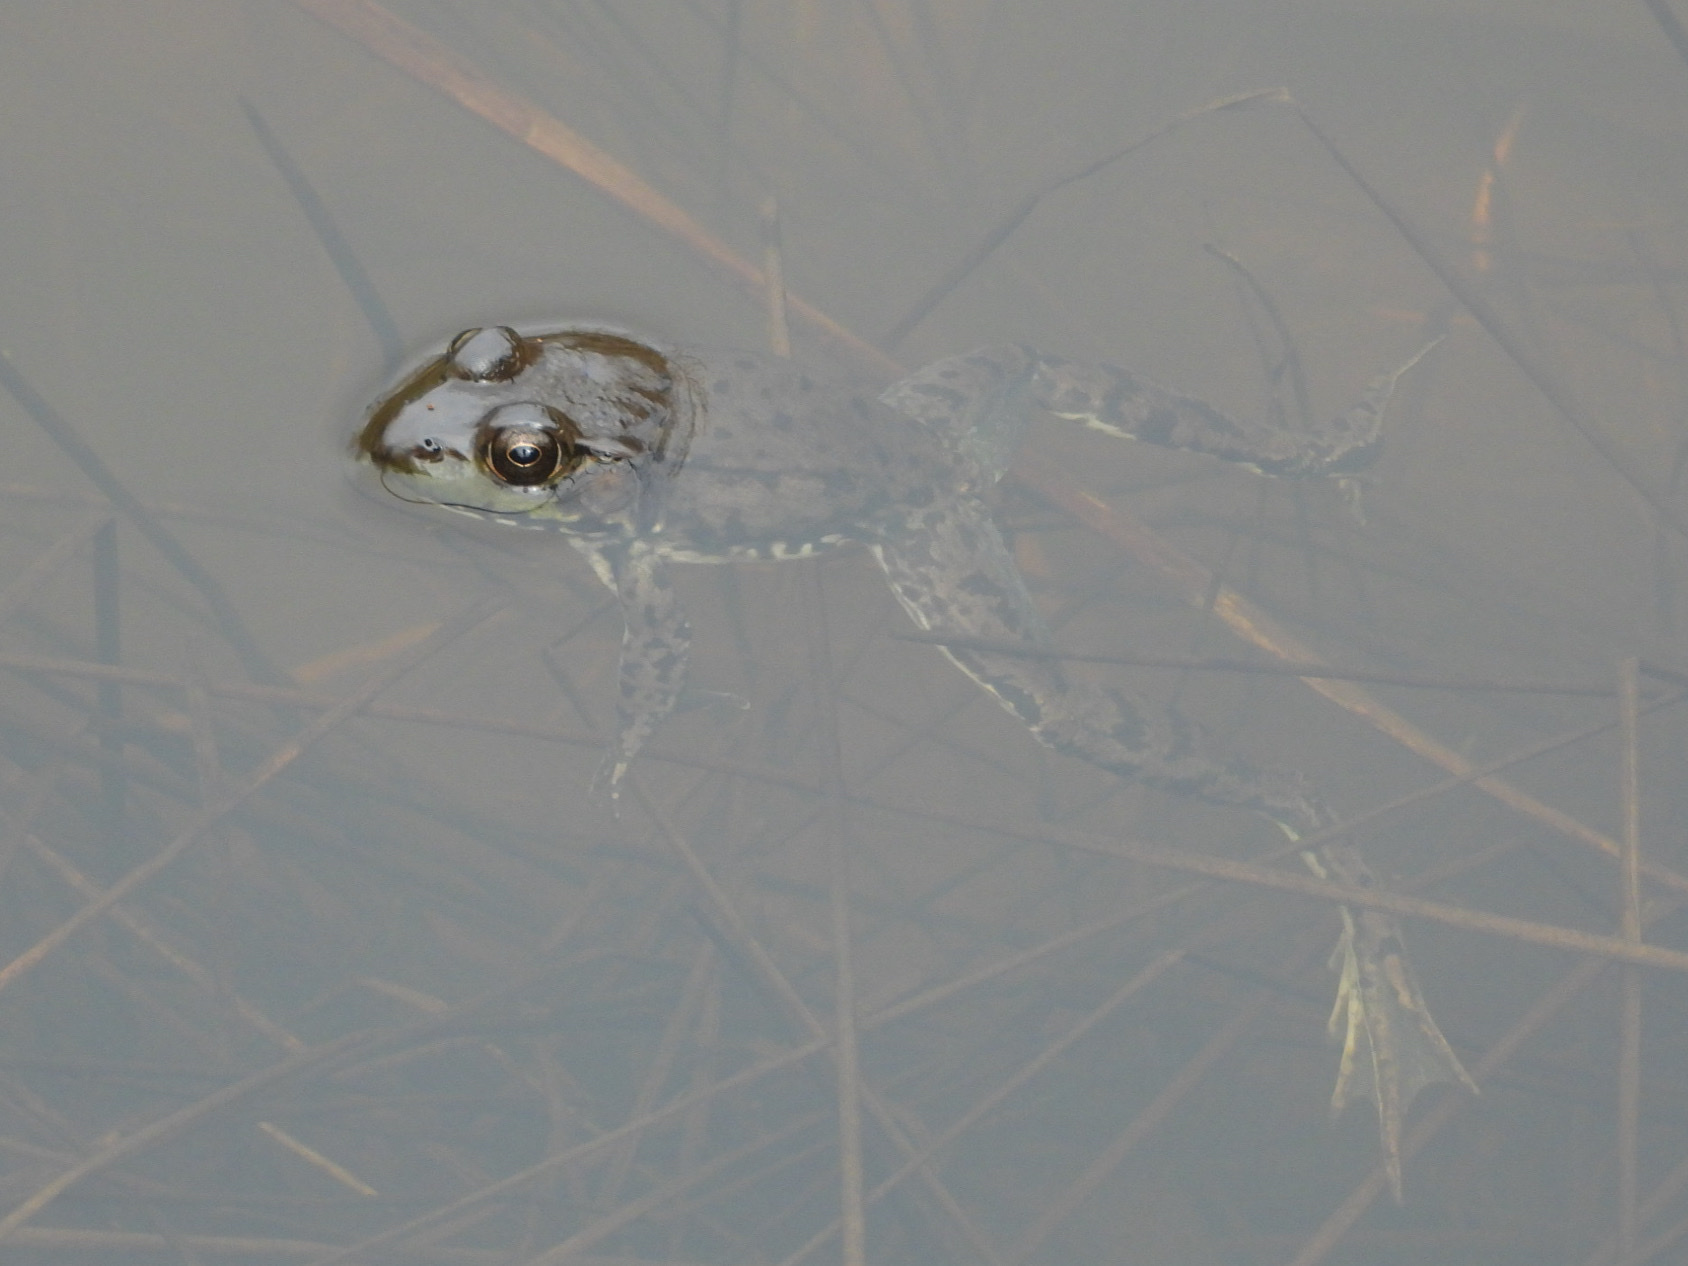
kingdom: Animalia
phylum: Chordata
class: Amphibia
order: Anura
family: Ranidae
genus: Lithobates
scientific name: Lithobates clamitans
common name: Green frog
